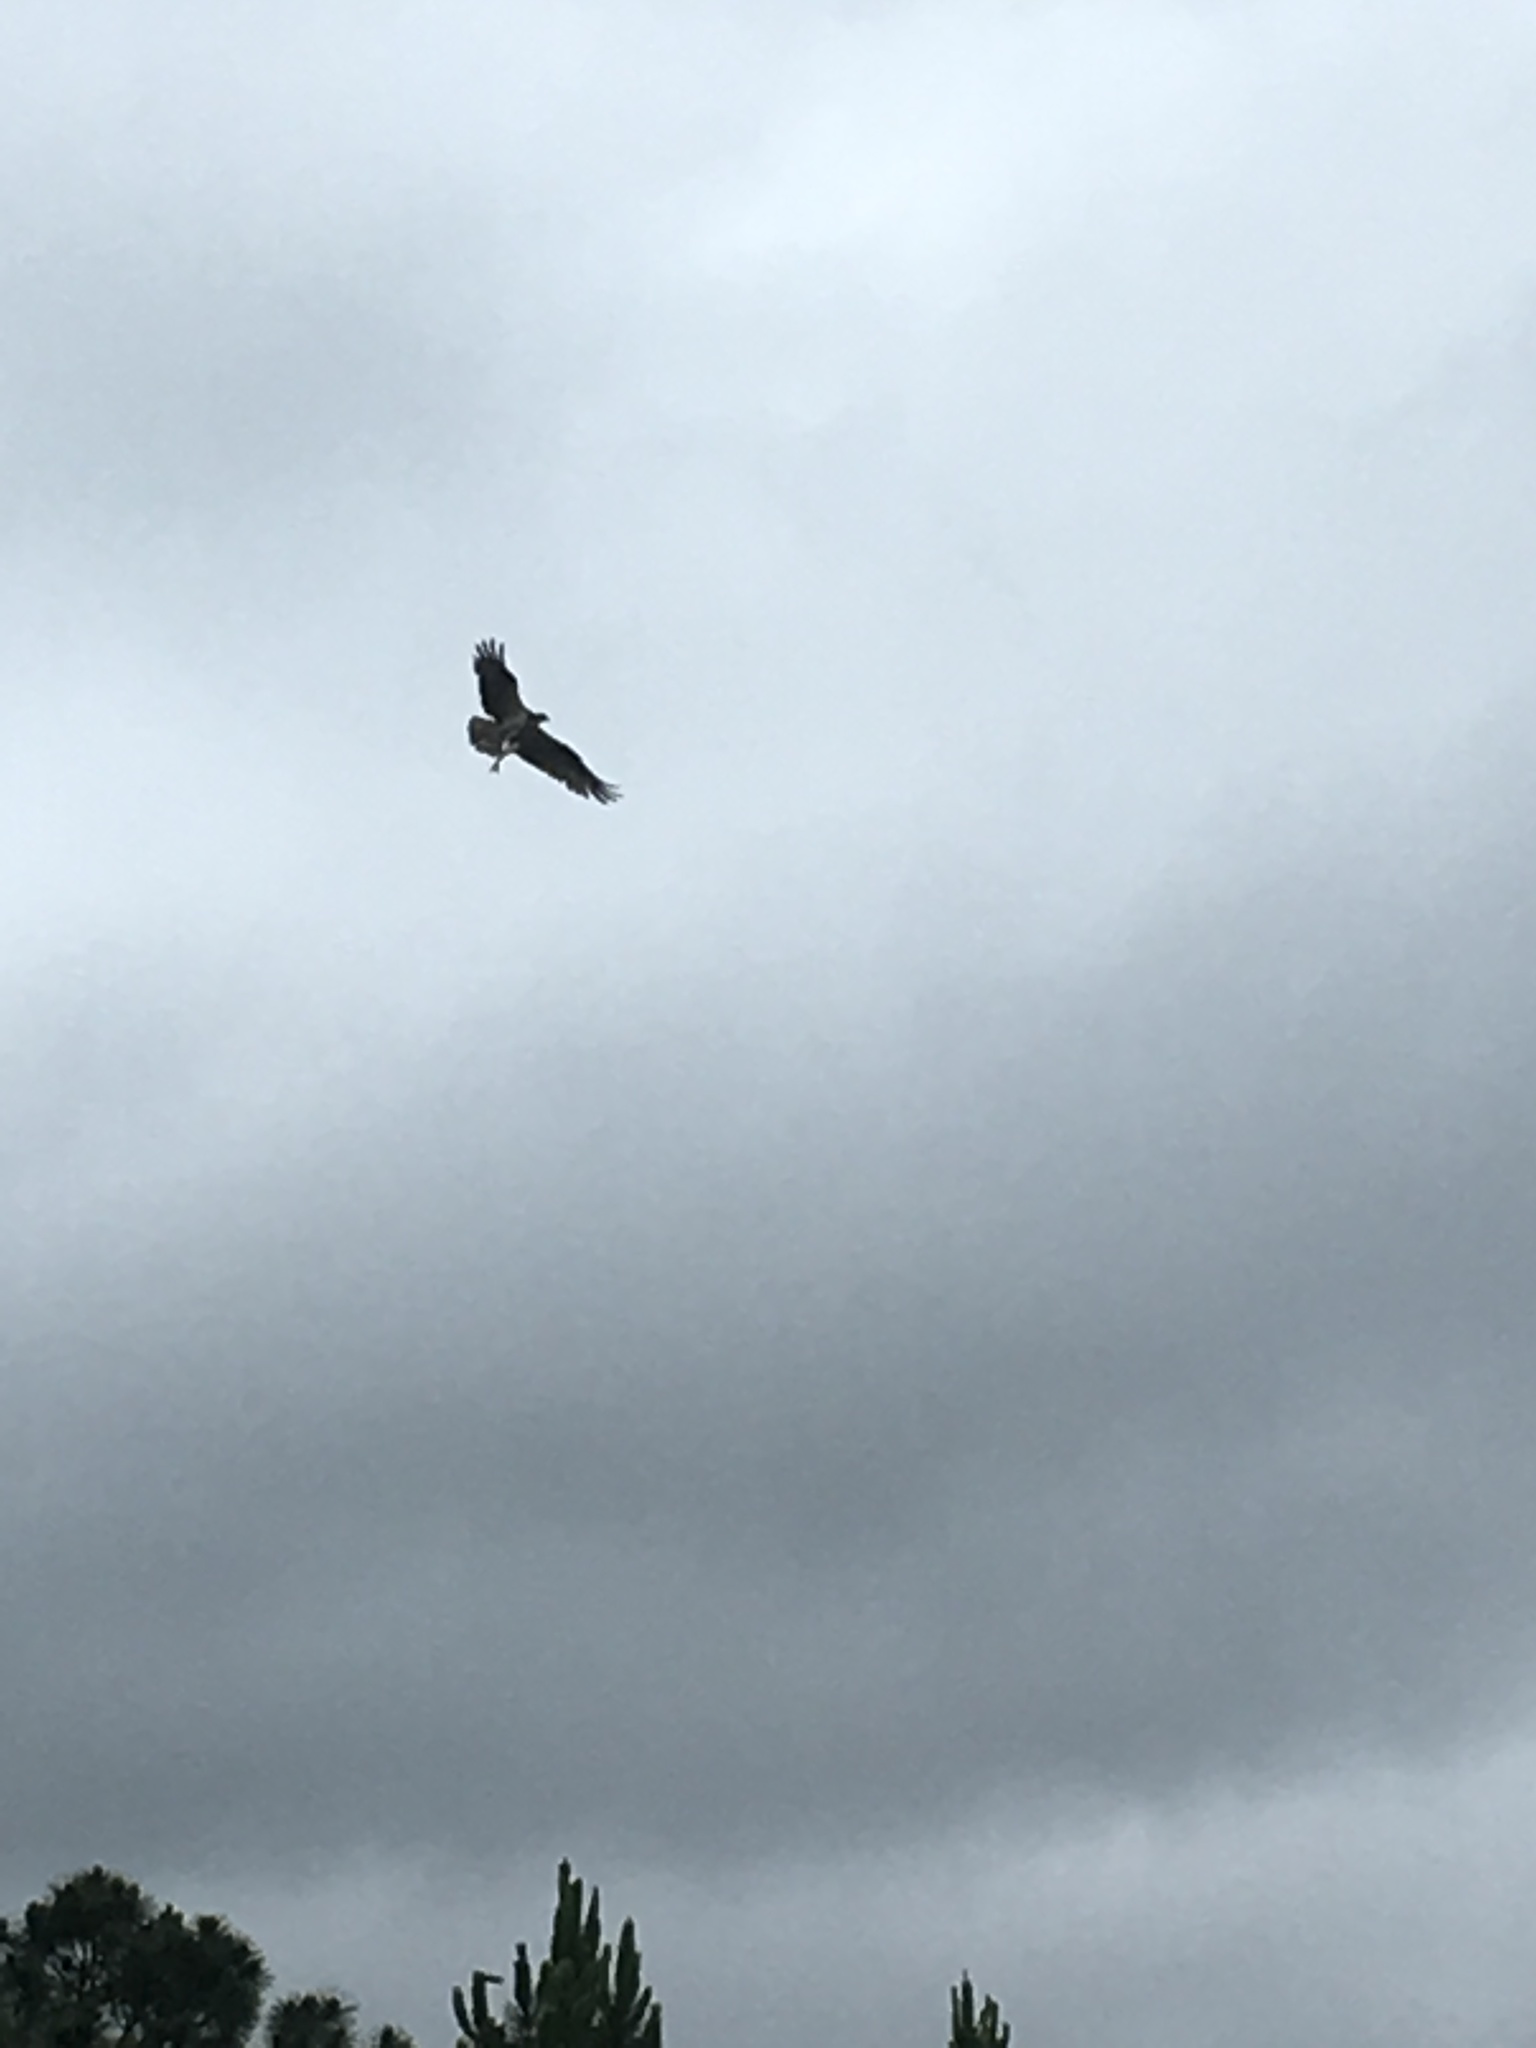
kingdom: Animalia
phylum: Chordata
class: Aves
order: Accipitriformes
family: Pandionidae
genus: Pandion
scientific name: Pandion haliaetus
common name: Osprey
